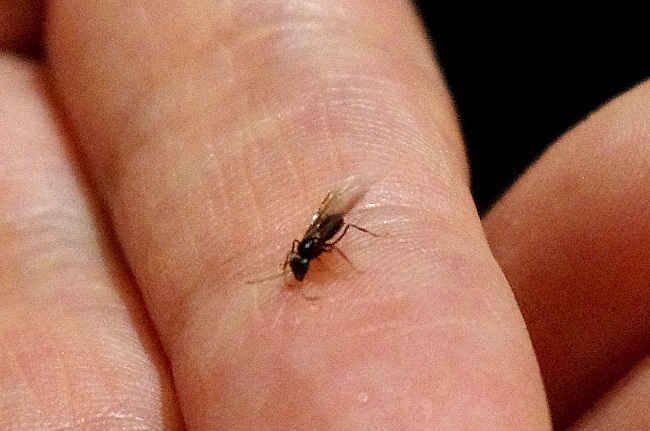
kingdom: Animalia
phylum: Arthropoda
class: Insecta
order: Hymenoptera
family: Formicidae
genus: Lasius
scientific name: Lasius
